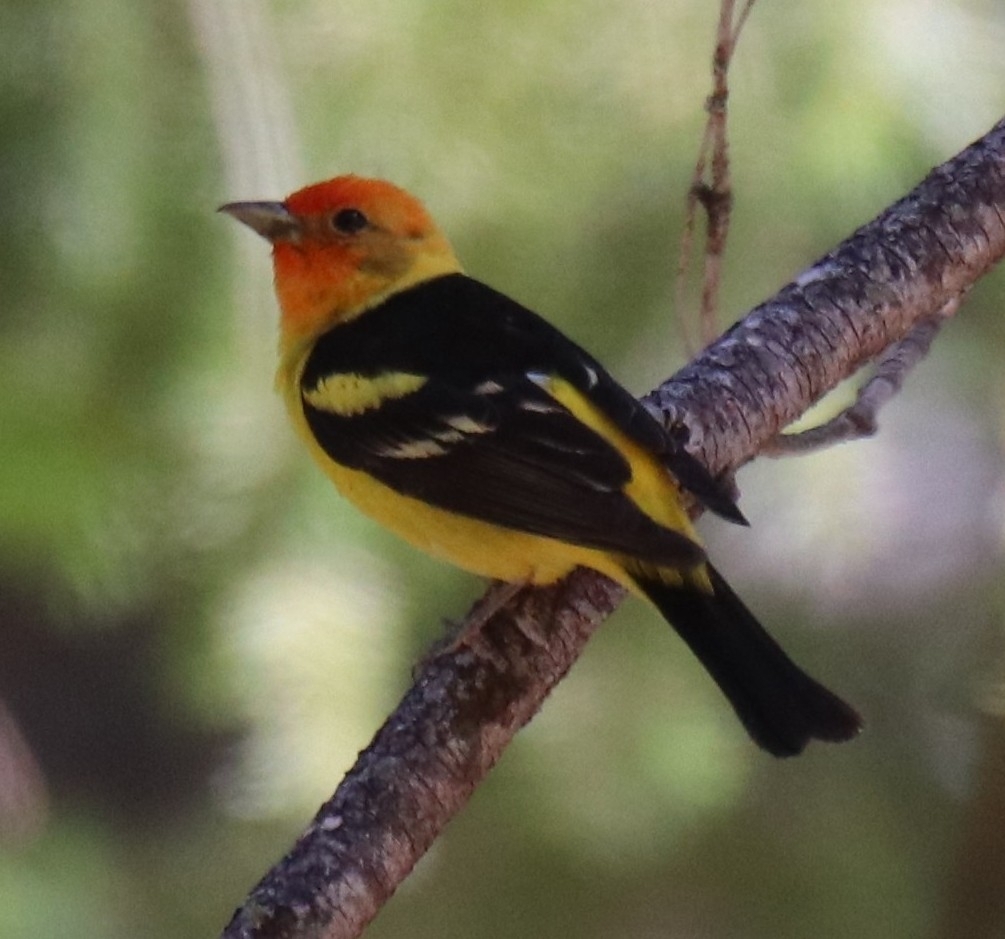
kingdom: Animalia
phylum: Chordata
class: Aves
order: Passeriformes
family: Cardinalidae
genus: Piranga
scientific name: Piranga ludoviciana
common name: Western tanager
